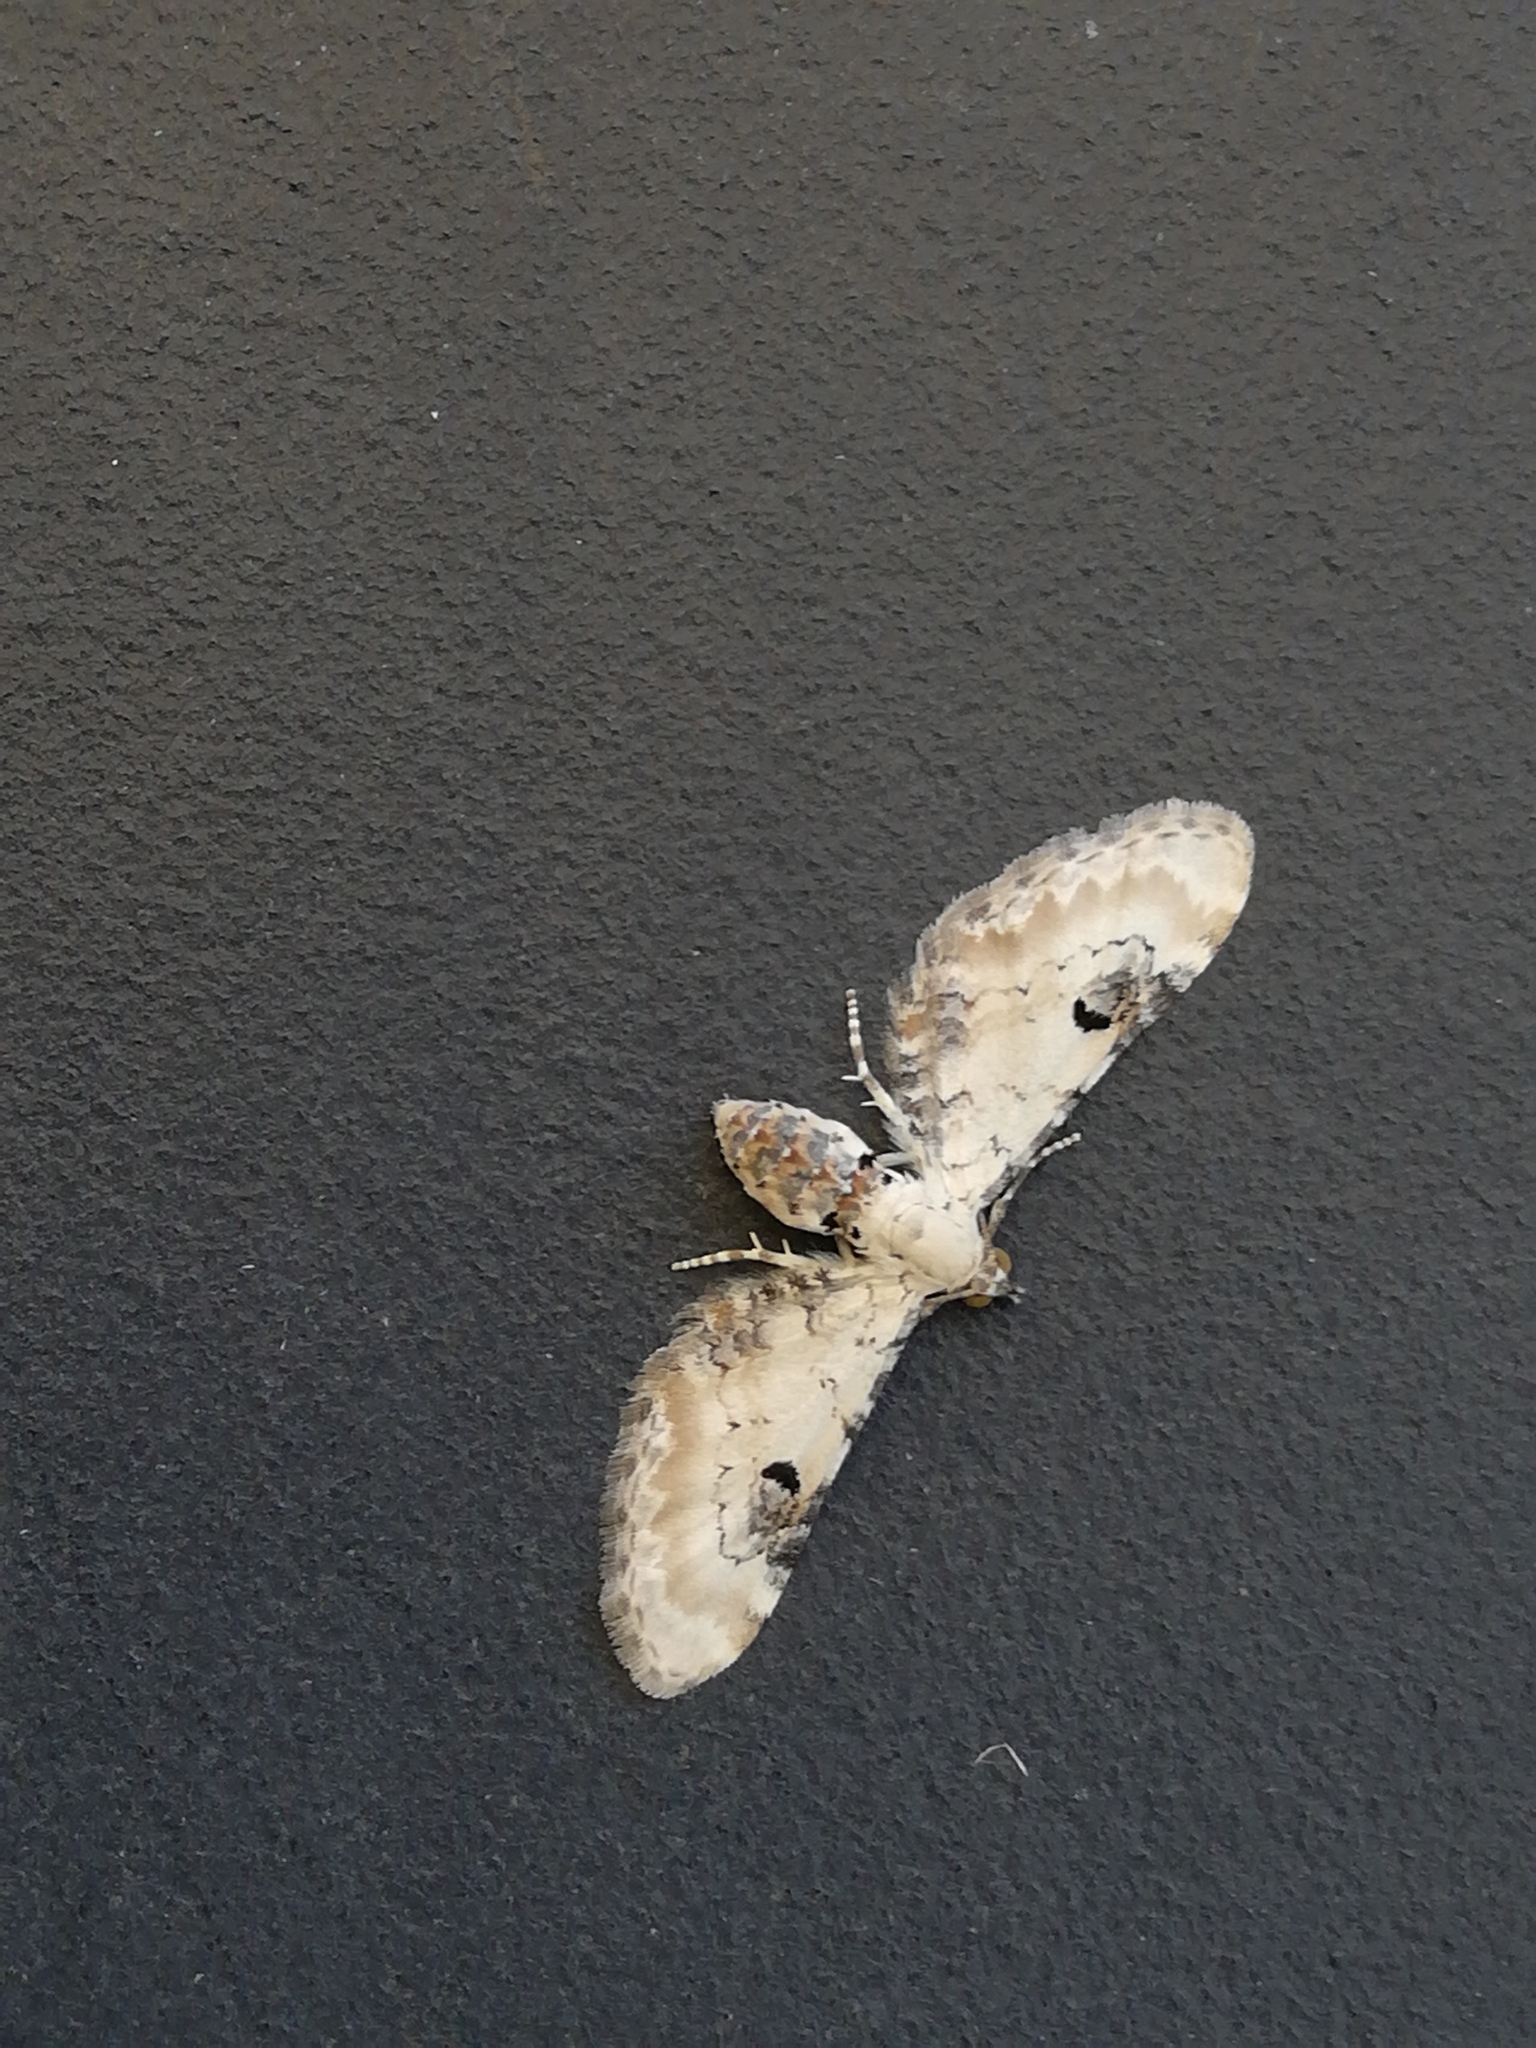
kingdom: Animalia
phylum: Arthropoda
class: Insecta
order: Lepidoptera
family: Geometridae
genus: Eupithecia
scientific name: Eupithecia centaureata
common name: Lime-speck pug
